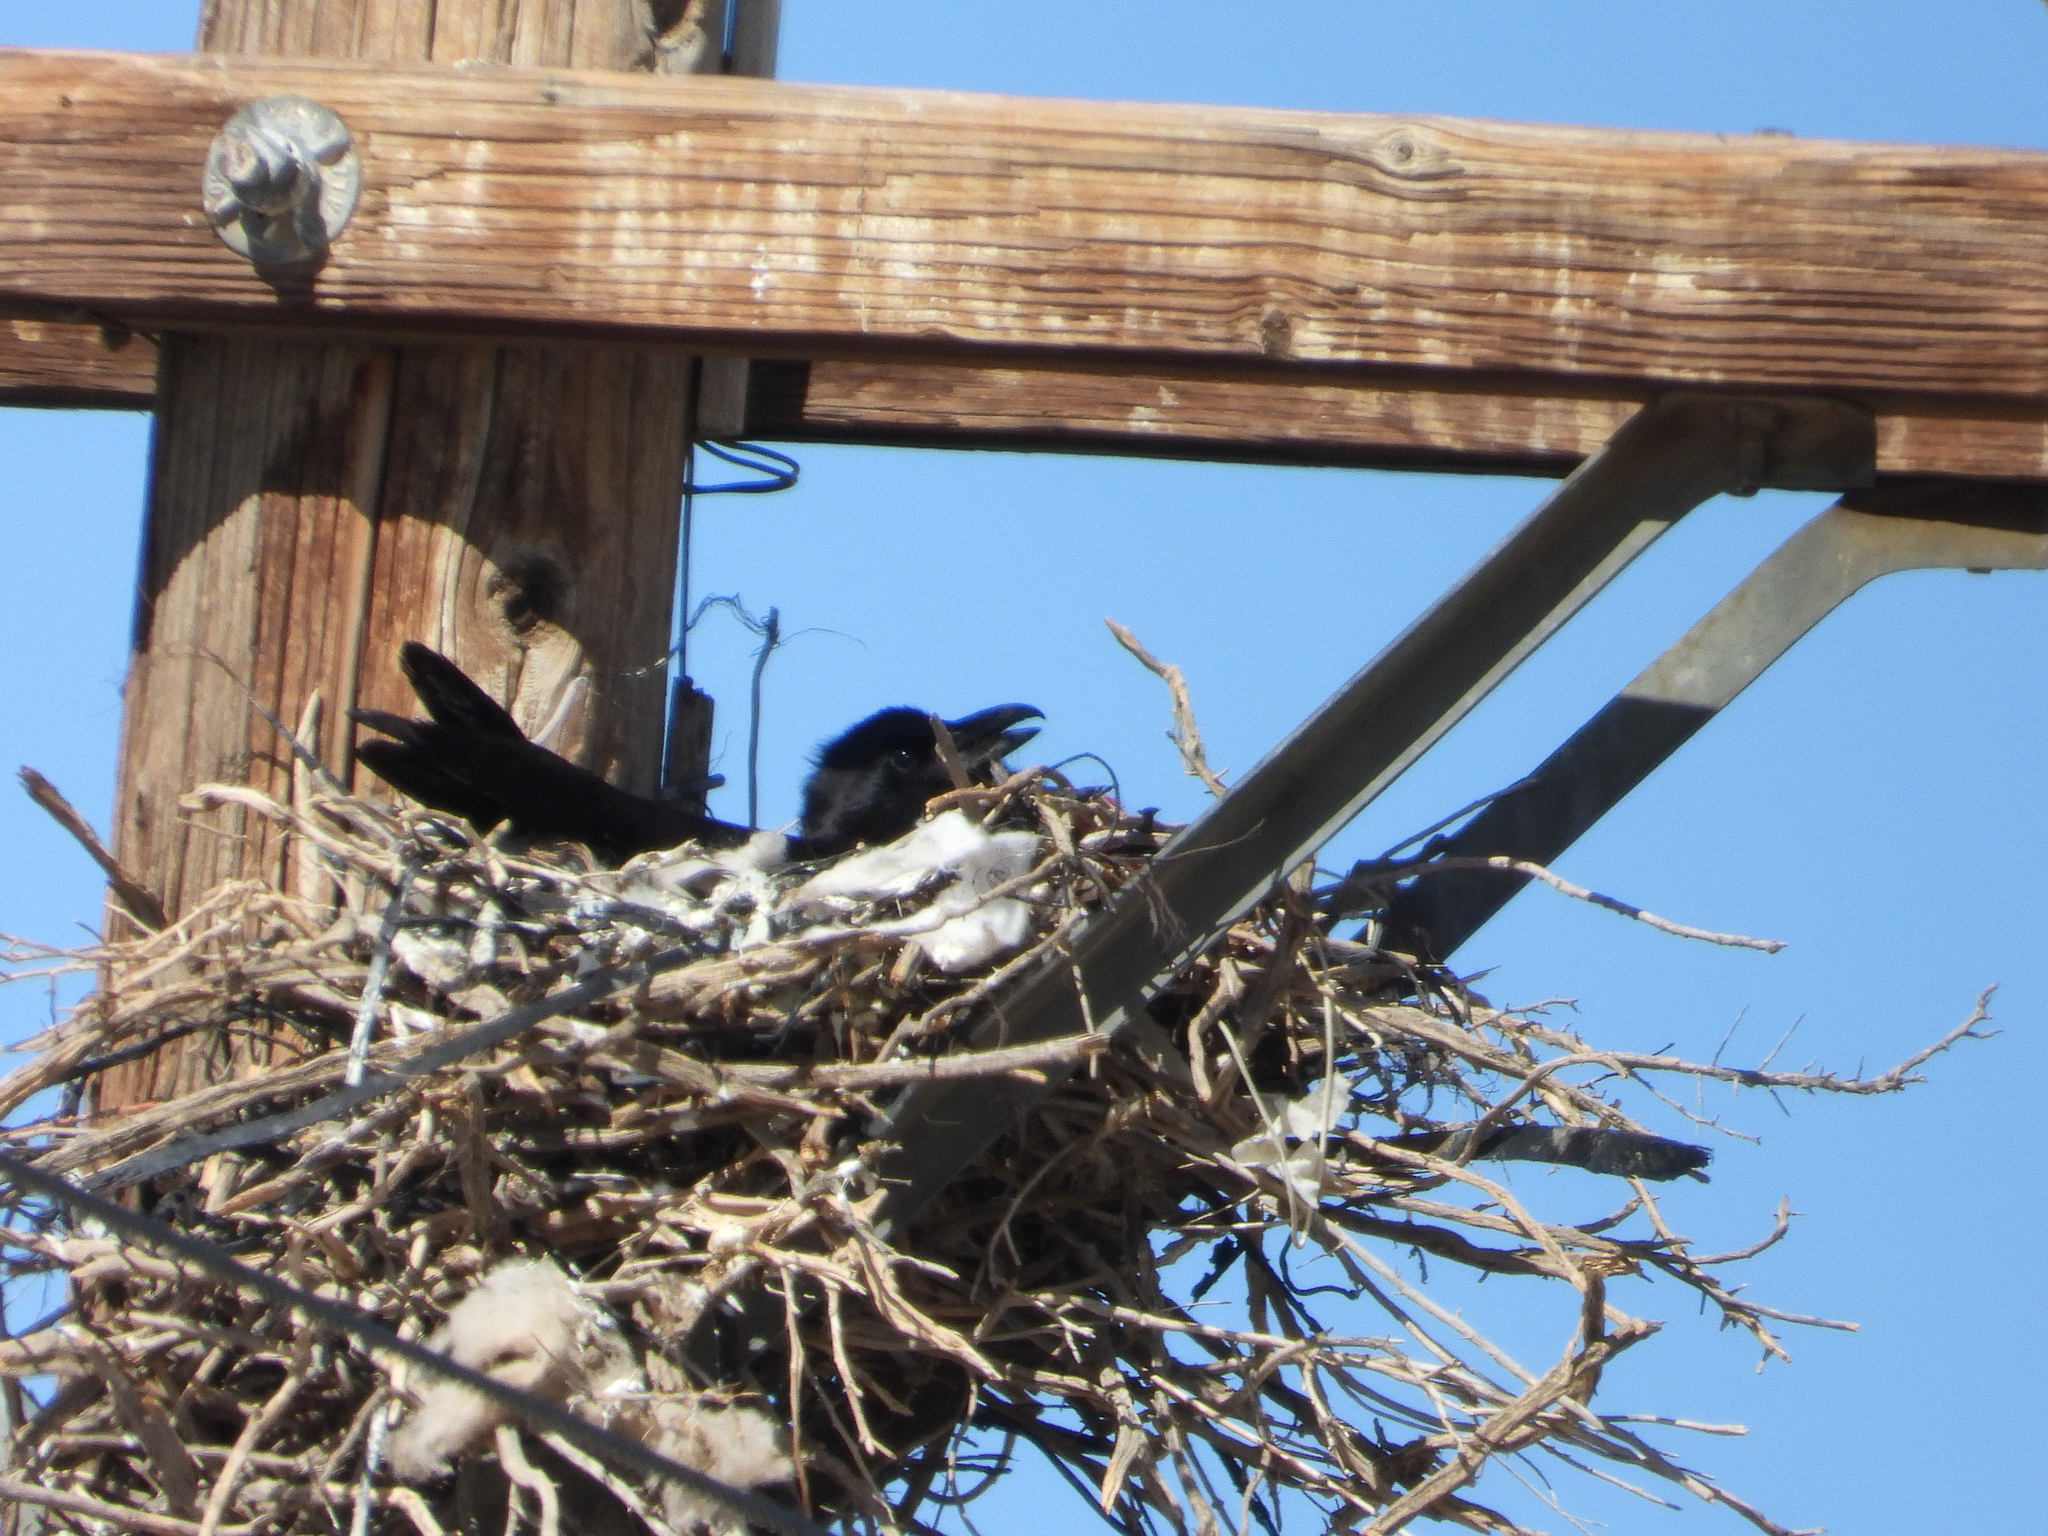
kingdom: Animalia
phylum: Chordata
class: Aves
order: Passeriformes
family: Corvidae
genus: Corvus
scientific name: Corvus corax
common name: Common raven
